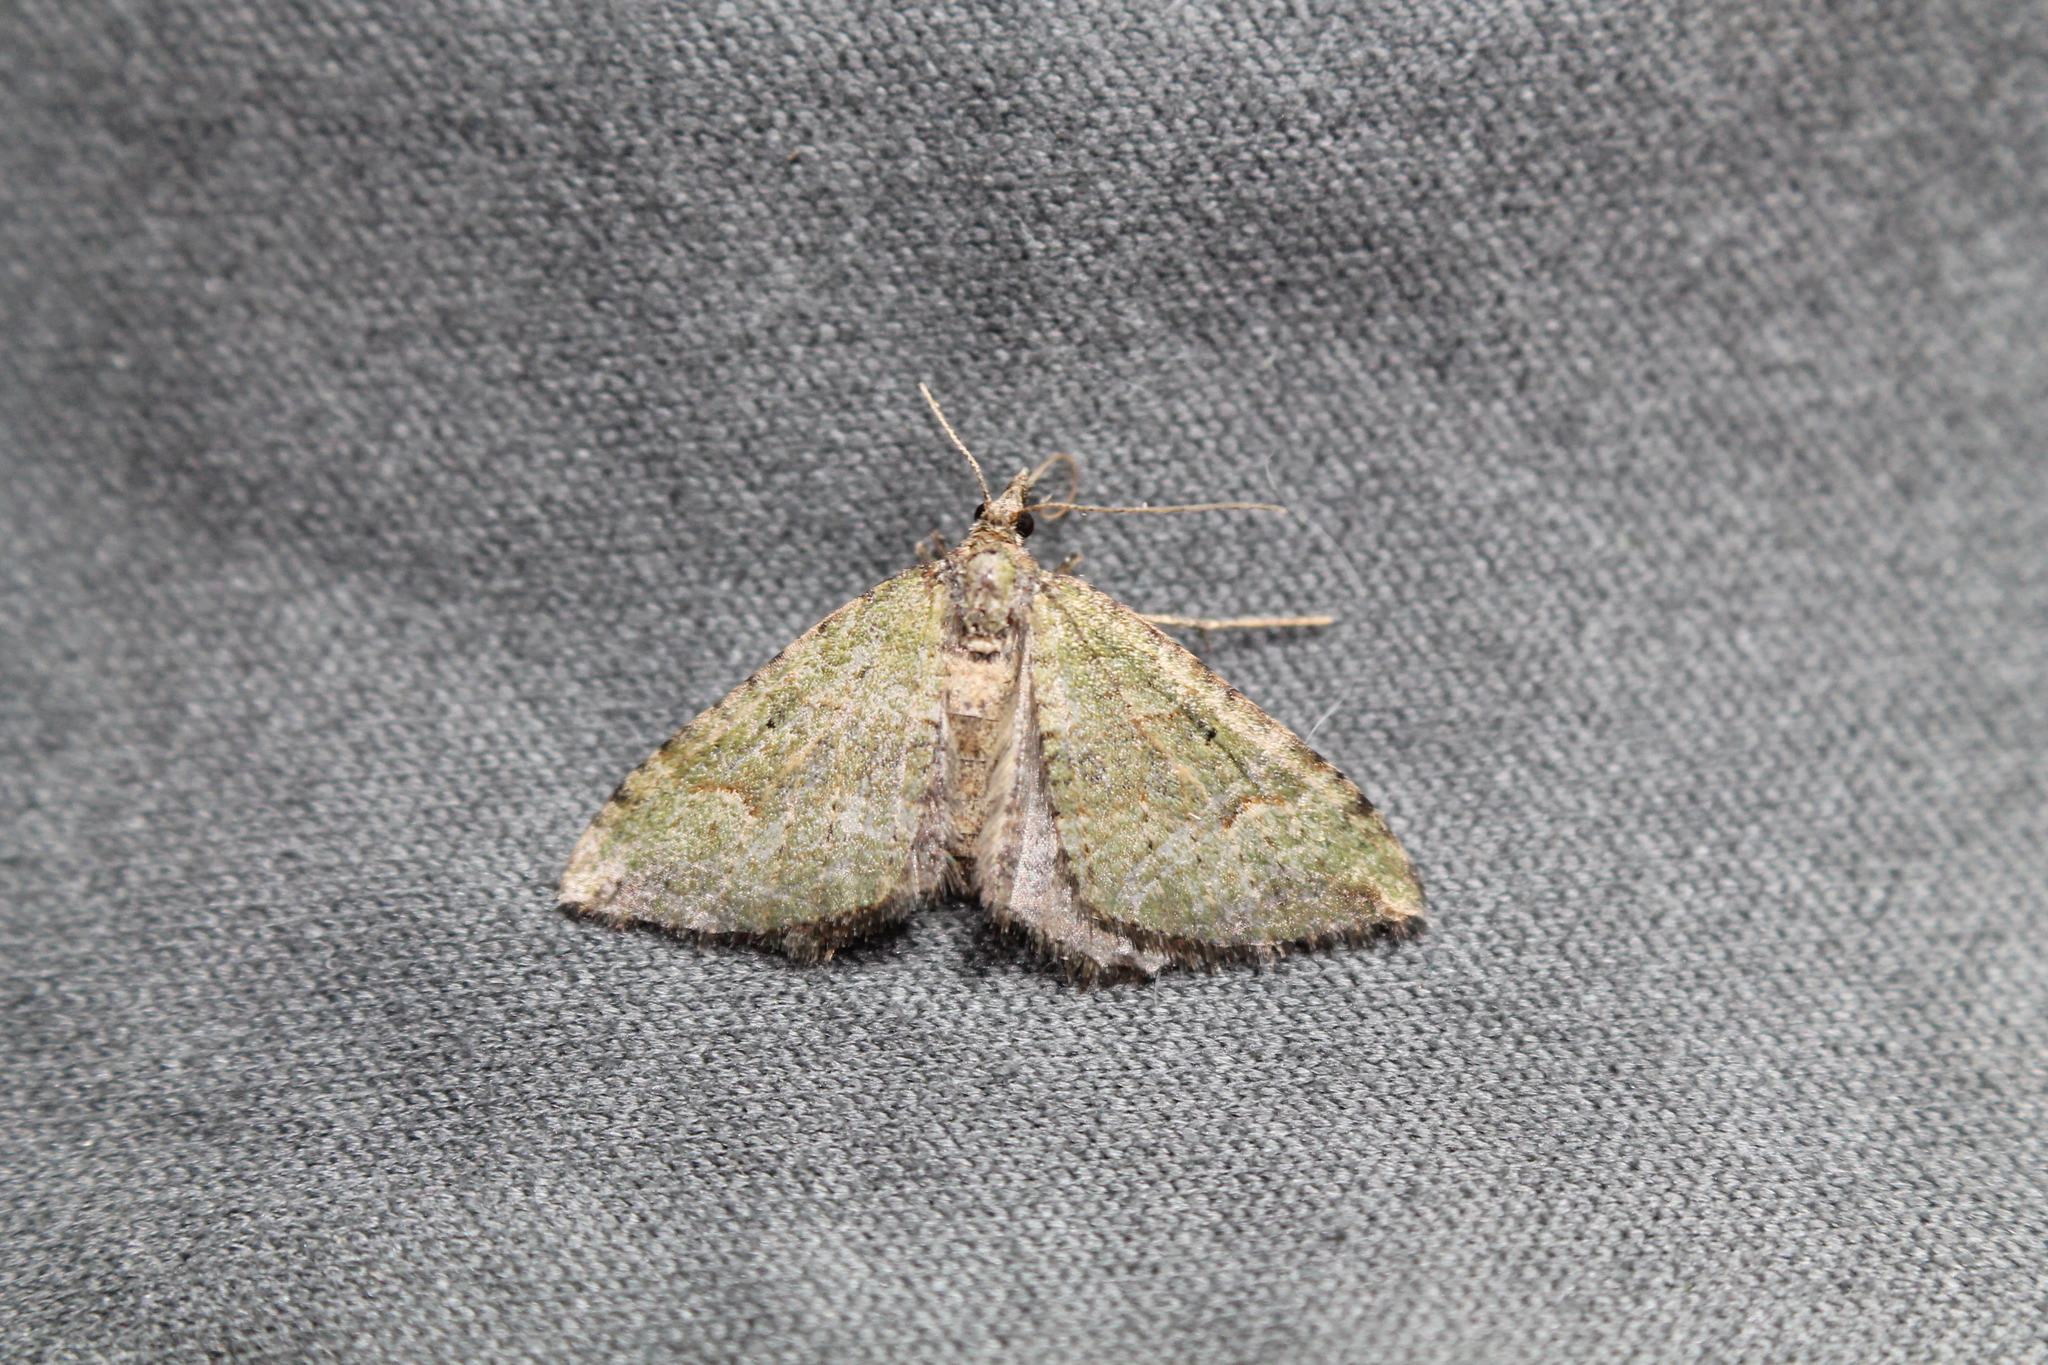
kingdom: Animalia
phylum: Arthropoda
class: Insecta
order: Lepidoptera
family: Geometridae
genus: Epyaxa
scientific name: Epyaxa rosearia
